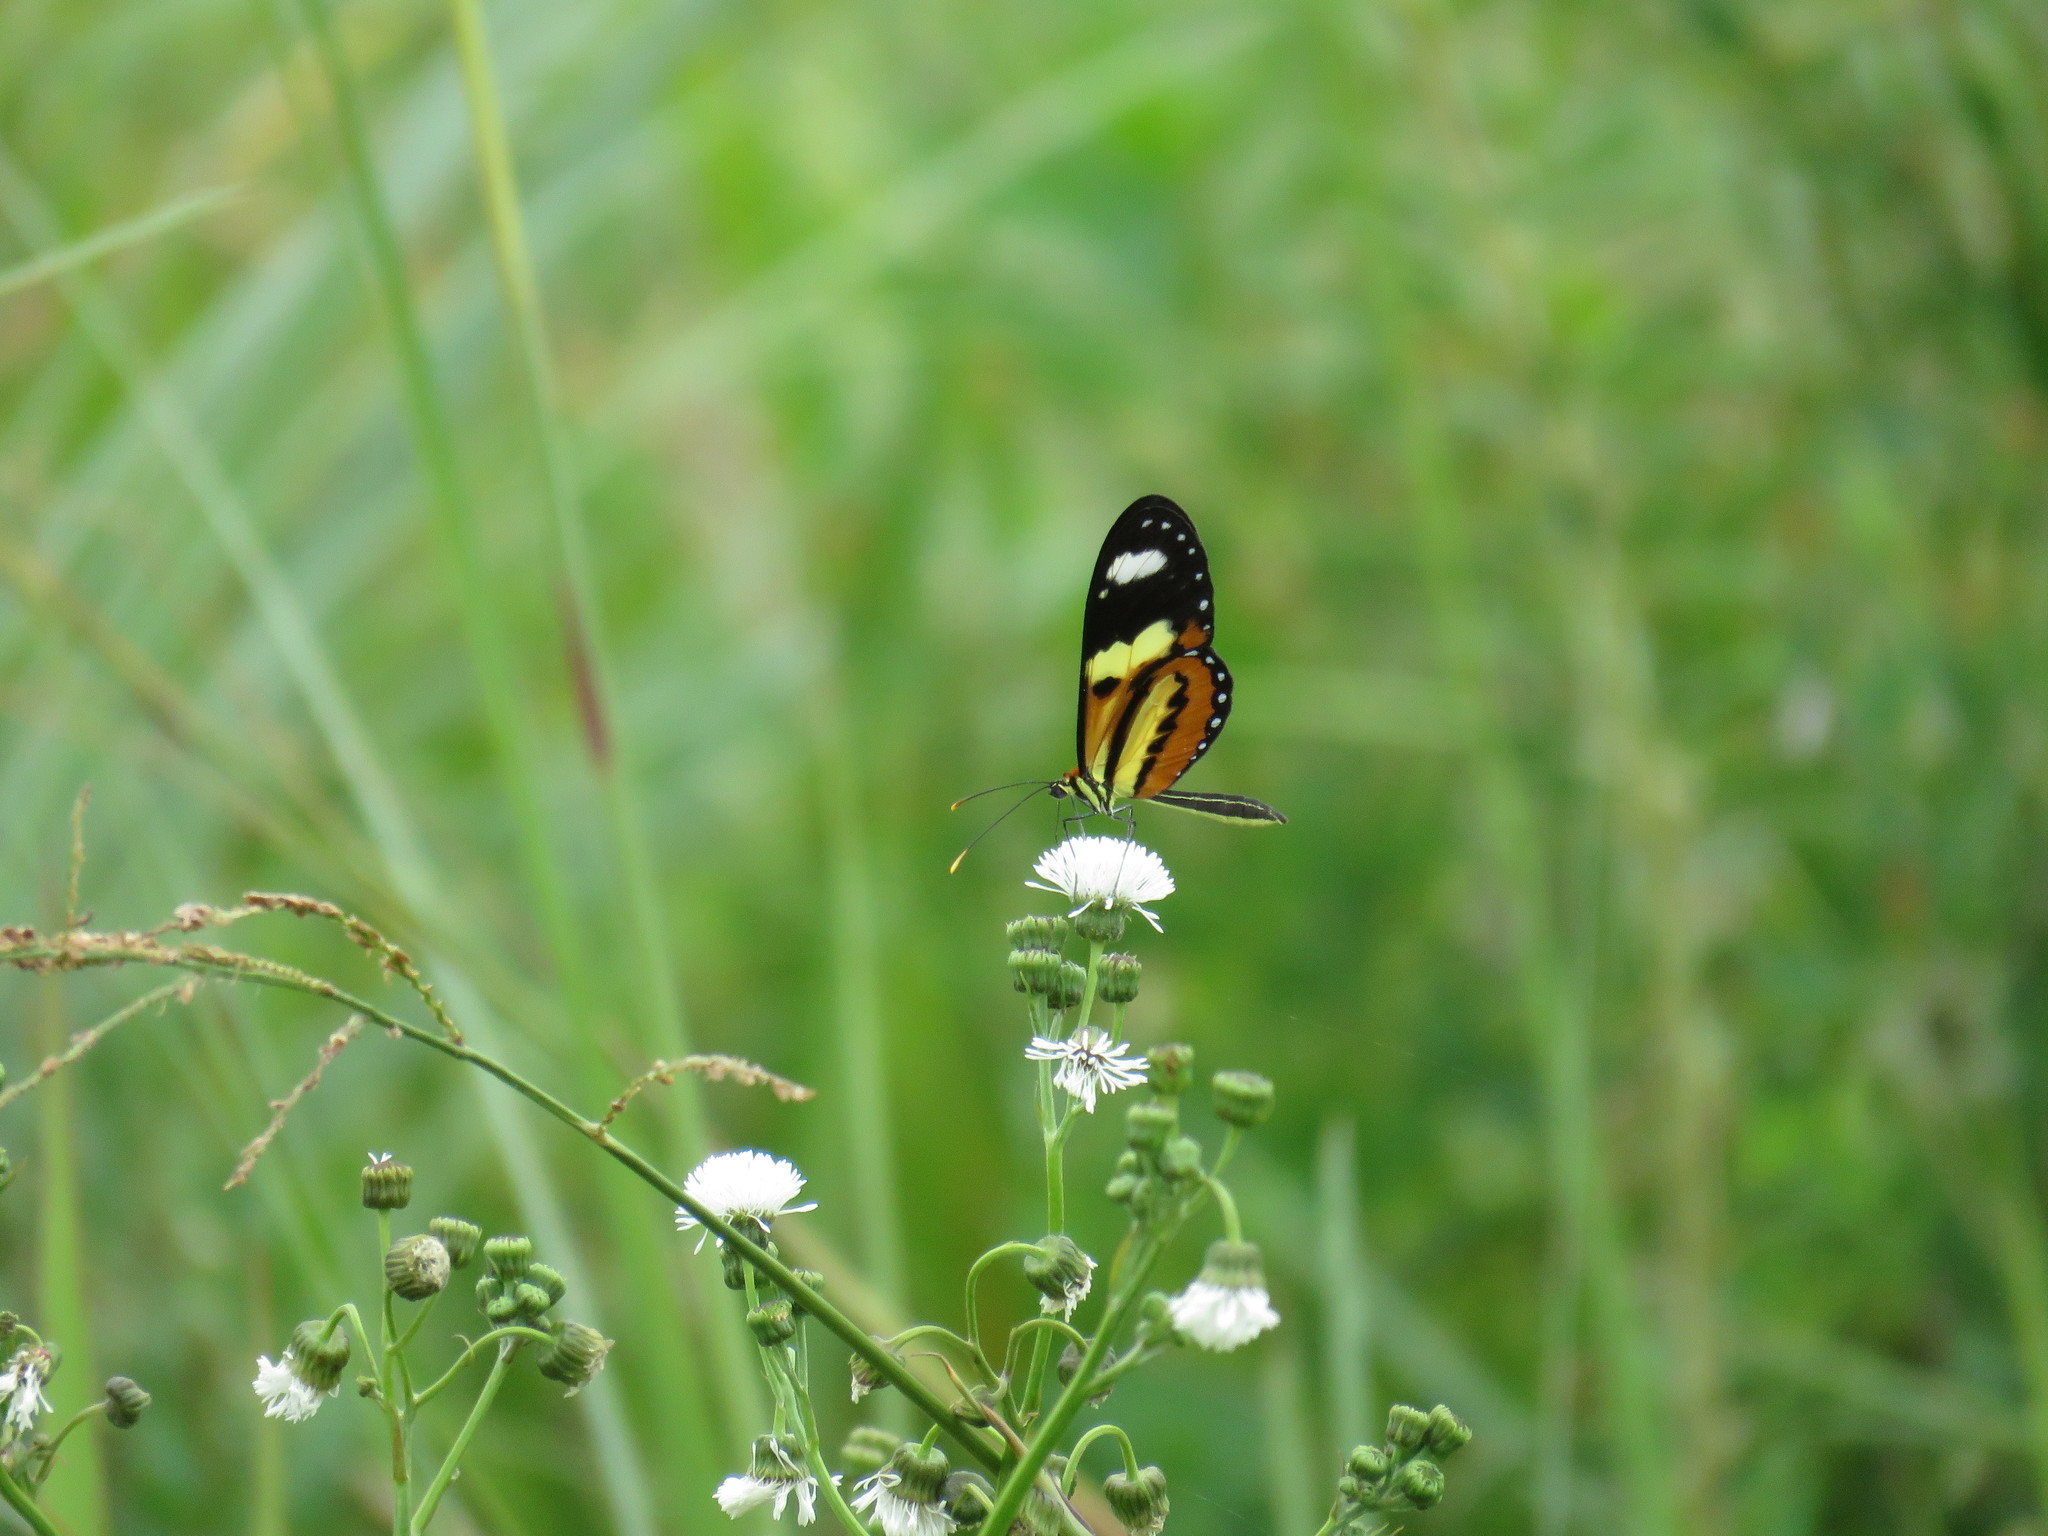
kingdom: Animalia
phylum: Arthropoda
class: Insecta
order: Lepidoptera
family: Nymphalidae
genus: Mechanitis
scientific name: Mechanitis lysimnia
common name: Lysimnia tigerwing
